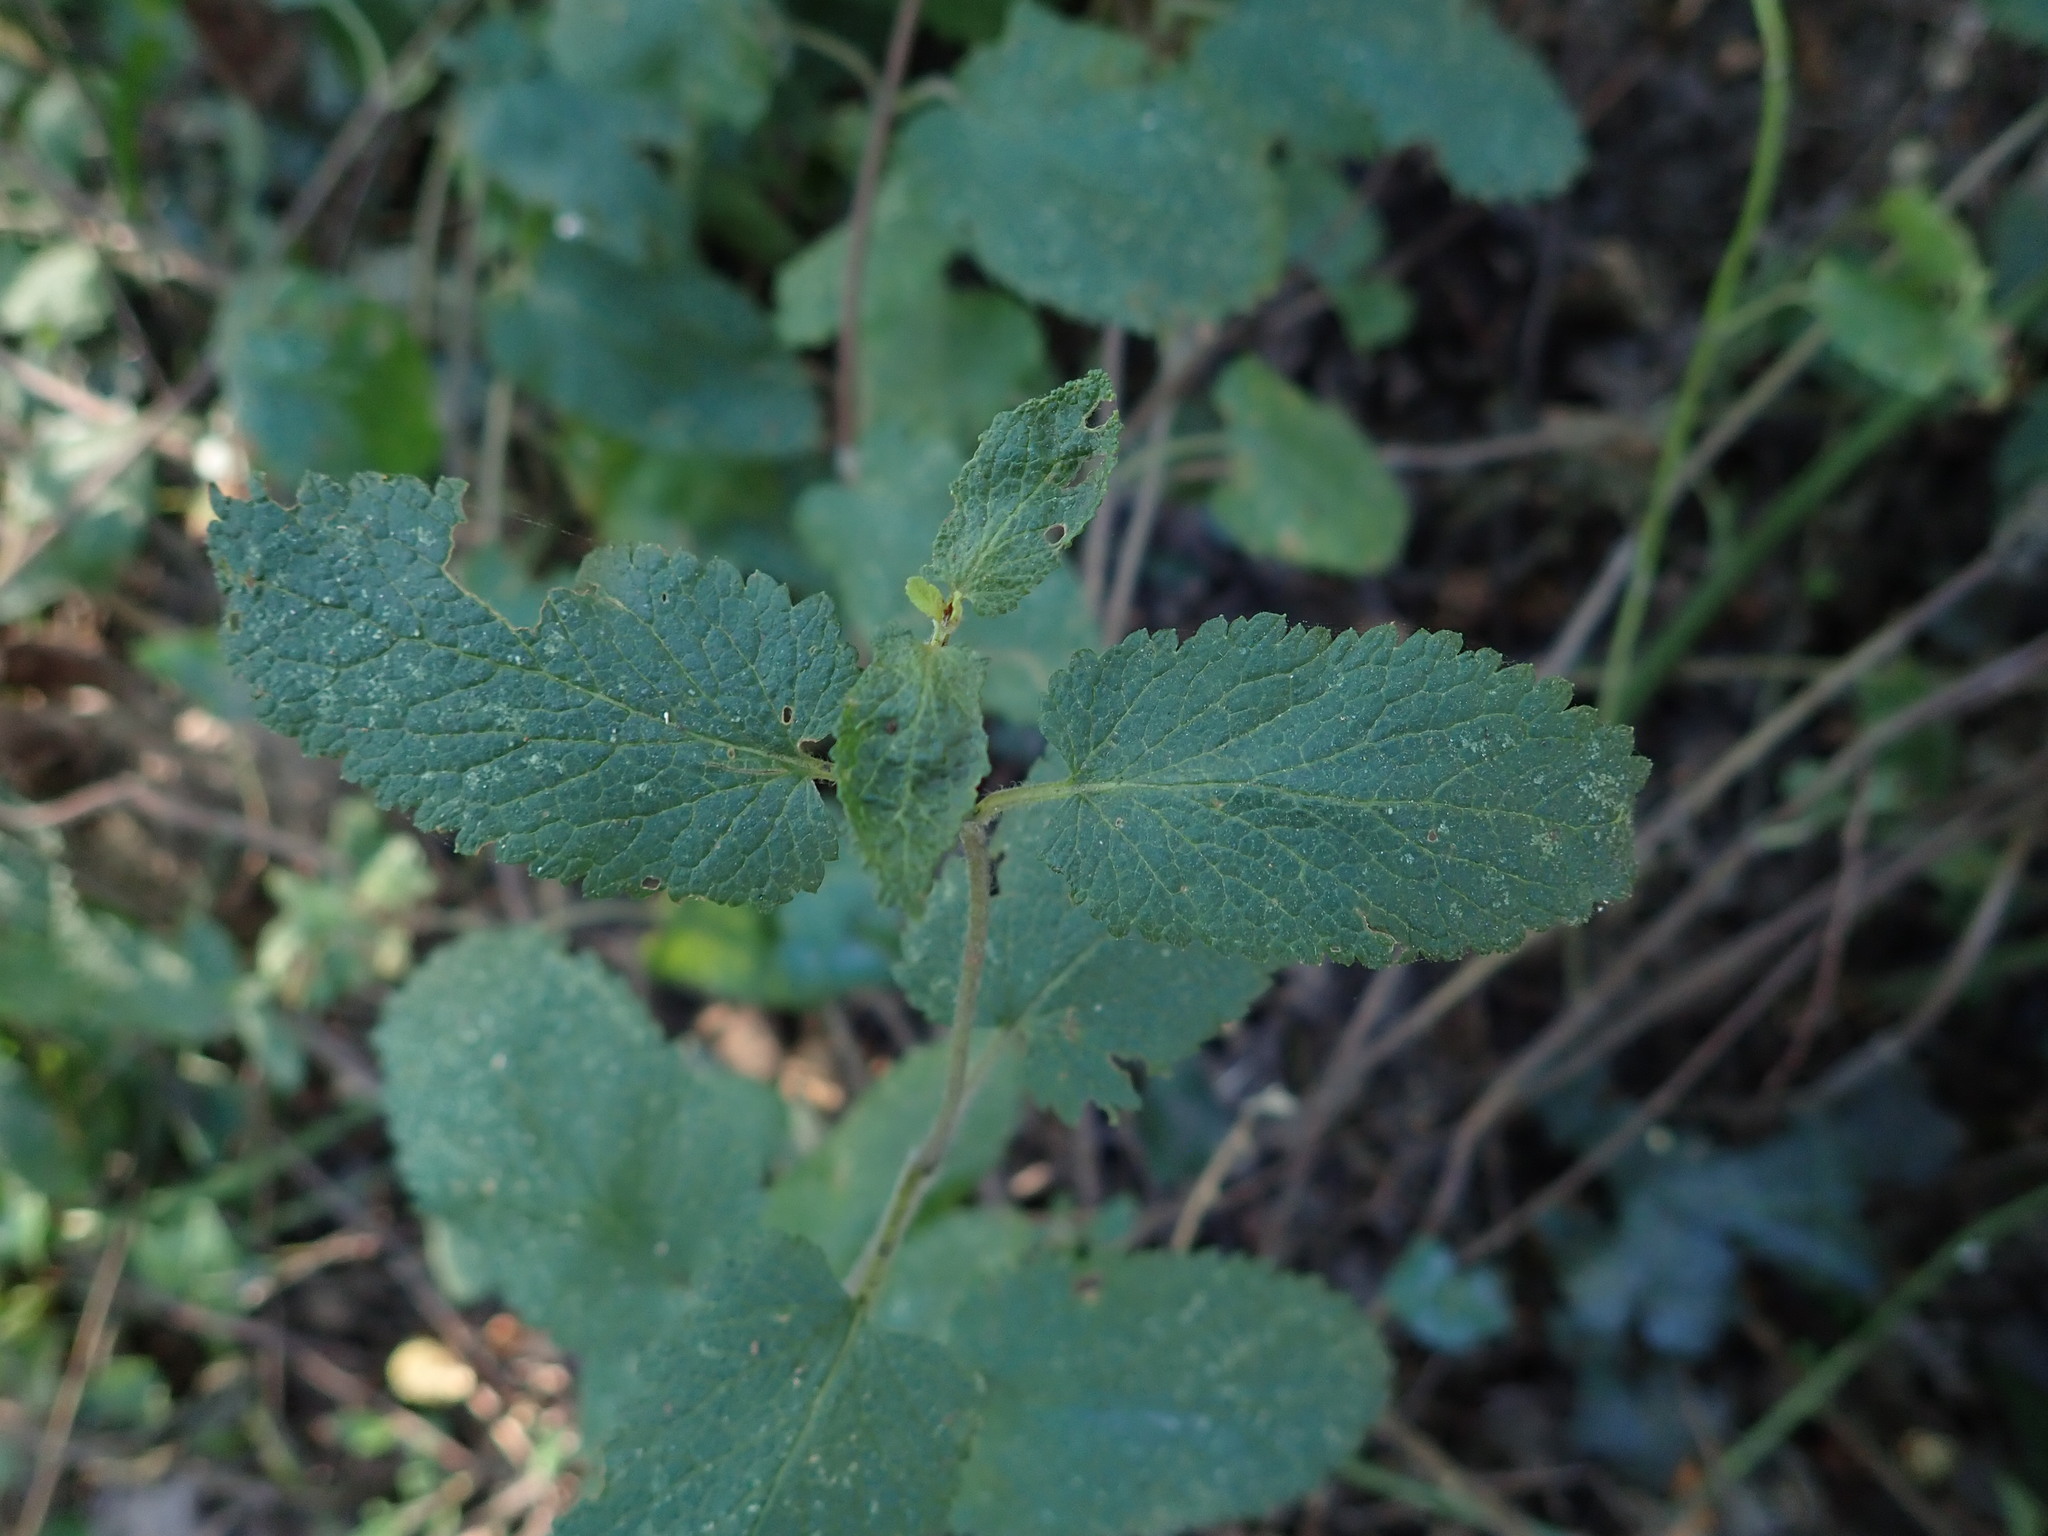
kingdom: Plantae
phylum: Tracheophyta
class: Magnoliopsida
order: Lamiales
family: Lamiaceae
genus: Teucrium
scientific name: Teucrium scorodonia
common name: Woodland germander
